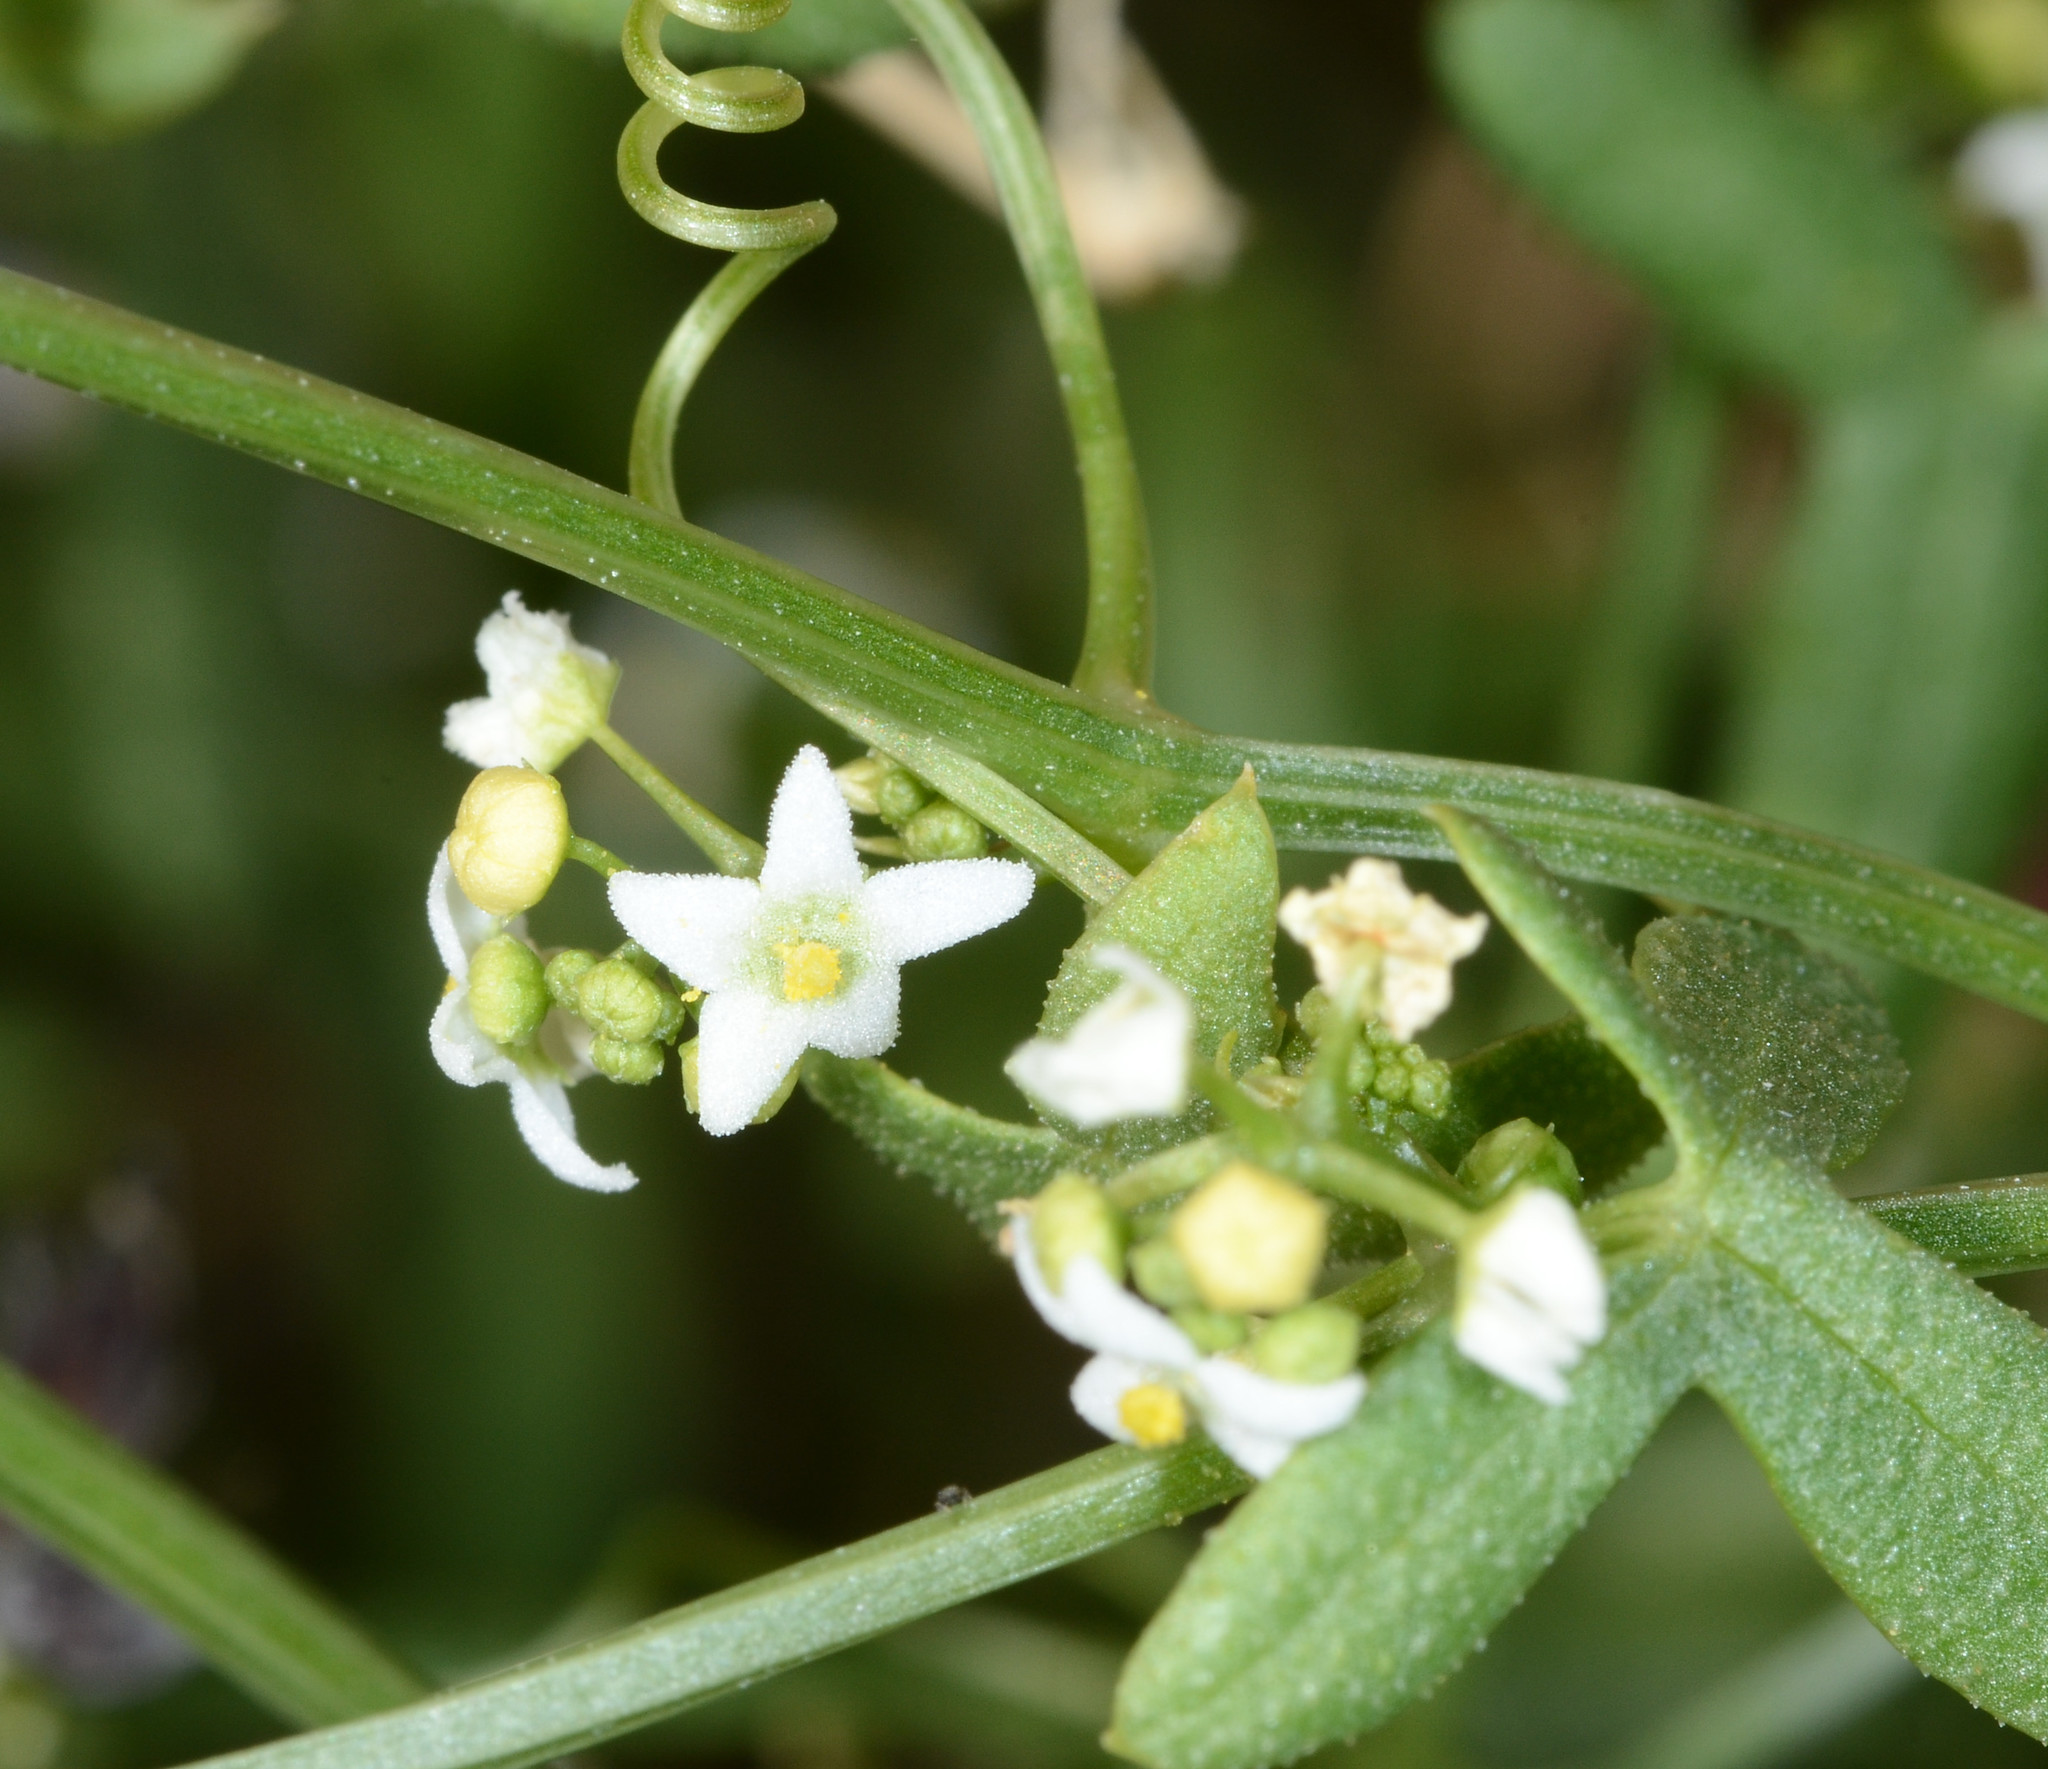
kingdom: Plantae
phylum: Tracheophyta
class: Magnoliopsida
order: Cucurbitales
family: Cucurbitaceae
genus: Echinopepon
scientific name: Echinopepon bigelovii
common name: Desert starvine
